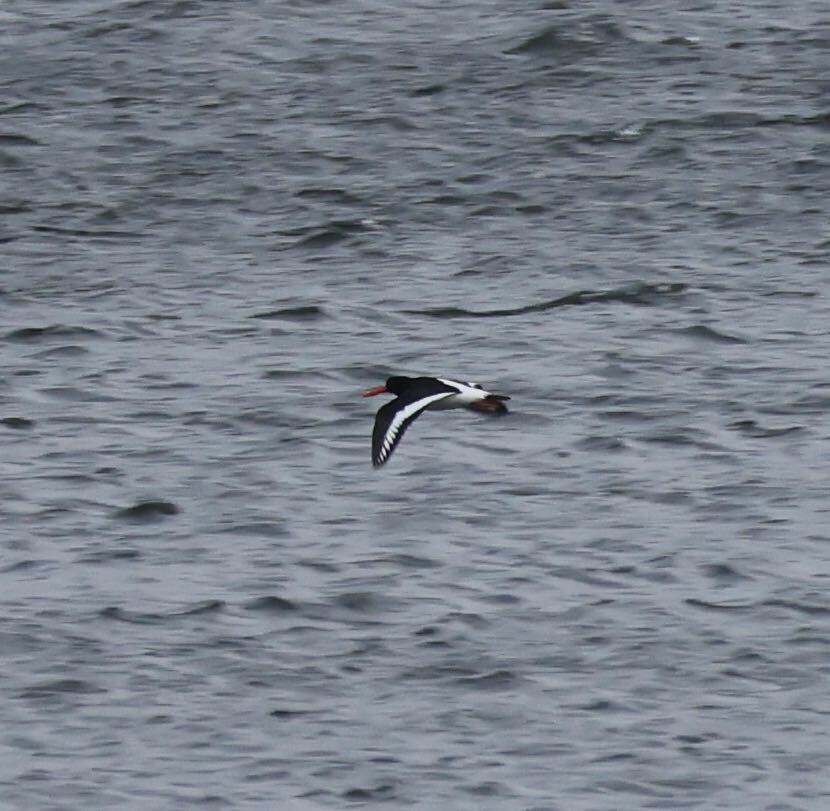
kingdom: Animalia
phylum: Chordata
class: Aves
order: Charadriiformes
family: Haematopodidae
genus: Haematopus
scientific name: Haematopus ostralegus
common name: Eurasian oystercatcher
